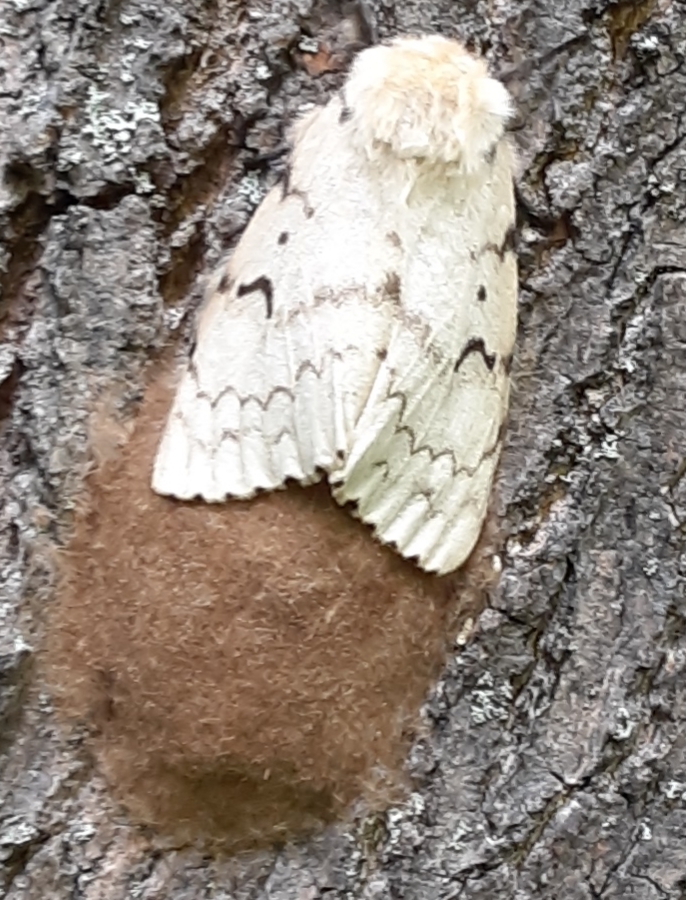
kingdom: Animalia
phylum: Arthropoda
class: Insecta
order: Lepidoptera
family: Erebidae
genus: Lymantria
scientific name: Lymantria dispar
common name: Gypsy moth
